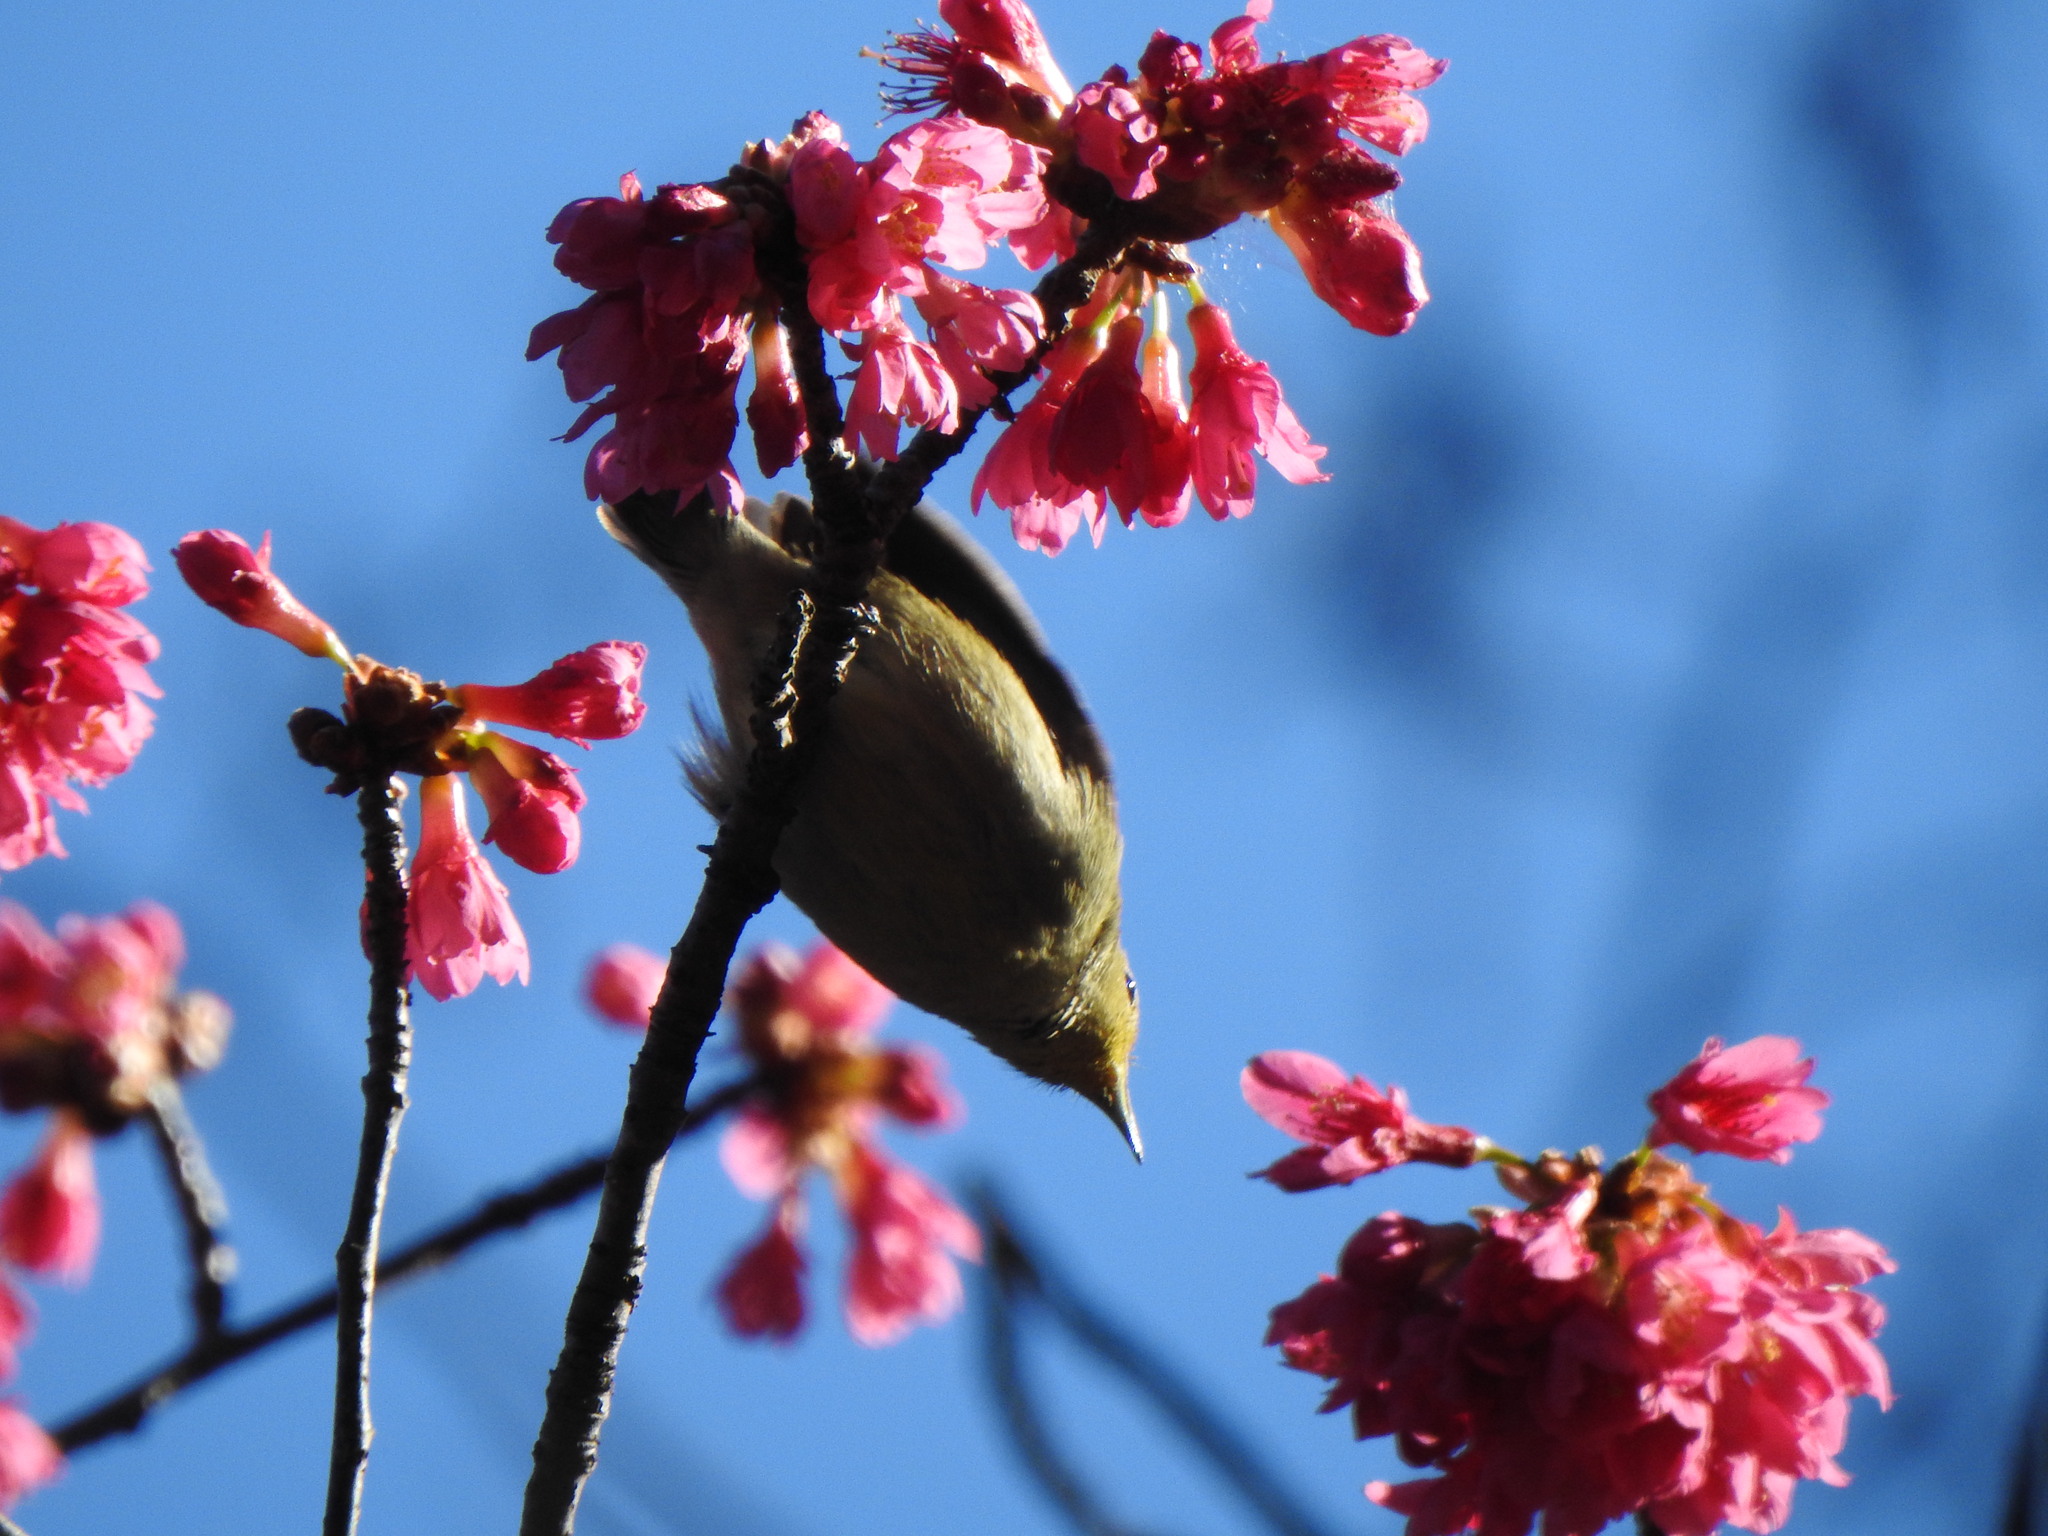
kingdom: Animalia
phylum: Chordata
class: Aves
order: Passeriformes
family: Dicaeidae
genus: Dicaeum
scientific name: Dicaeum minullum
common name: Plain flowerpecker
